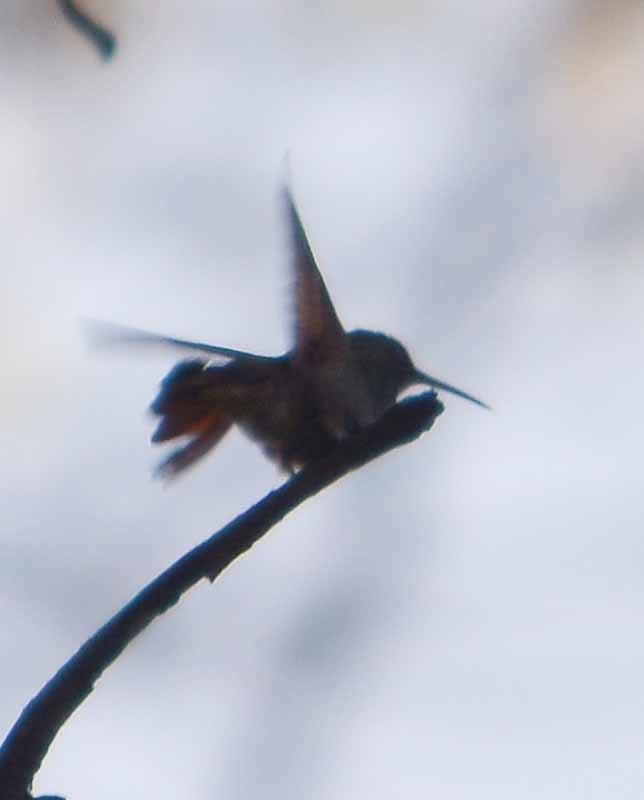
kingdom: Animalia
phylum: Chordata
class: Aves
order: Apodiformes
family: Trochilidae
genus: Saucerottia
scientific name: Saucerottia beryllina
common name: Berylline hummingbird
